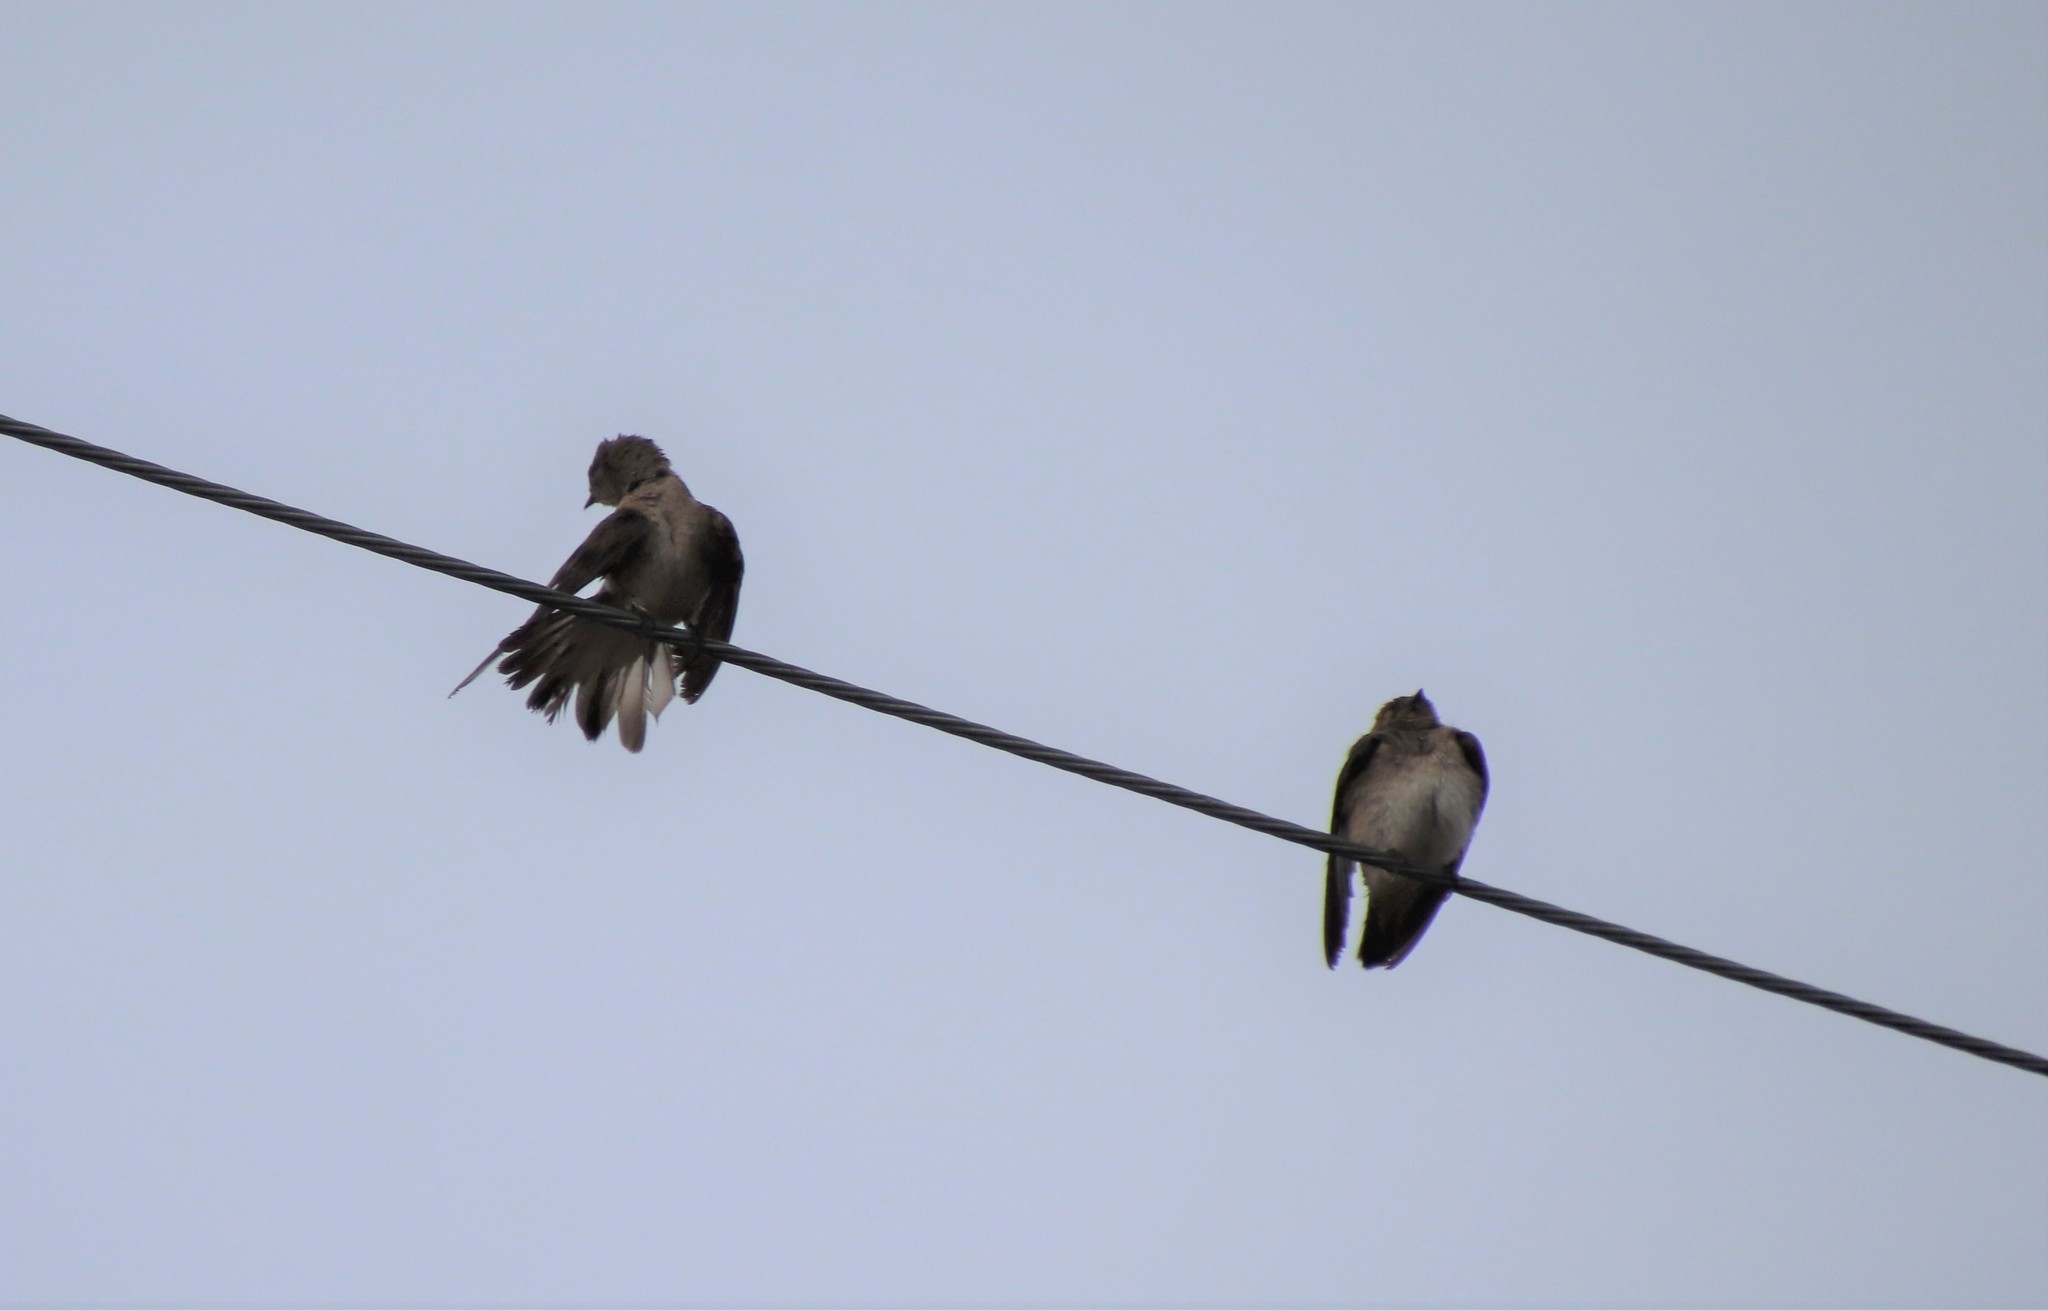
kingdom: Animalia
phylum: Chordata
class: Aves
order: Passeriformes
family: Hirundinidae
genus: Stelgidopteryx
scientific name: Stelgidopteryx serripennis
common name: Northern rough-winged swallow
